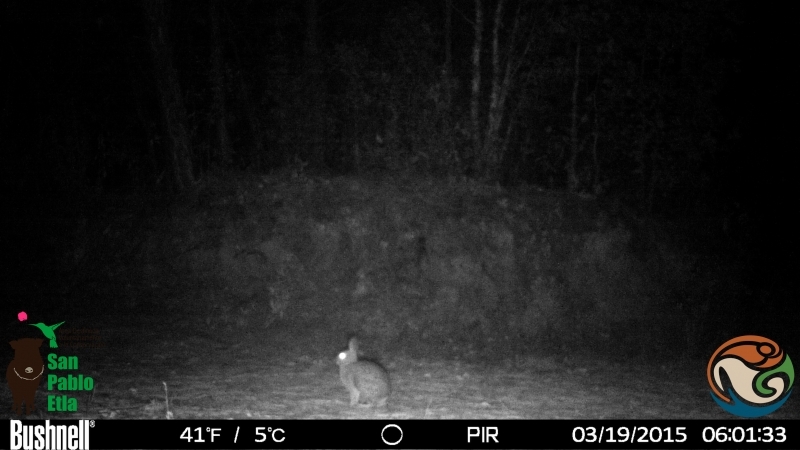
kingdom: Animalia
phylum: Chordata
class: Mammalia
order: Lagomorpha
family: Leporidae
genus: Sylvilagus
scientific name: Sylvilagus floridanus
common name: Eastern cottontail
